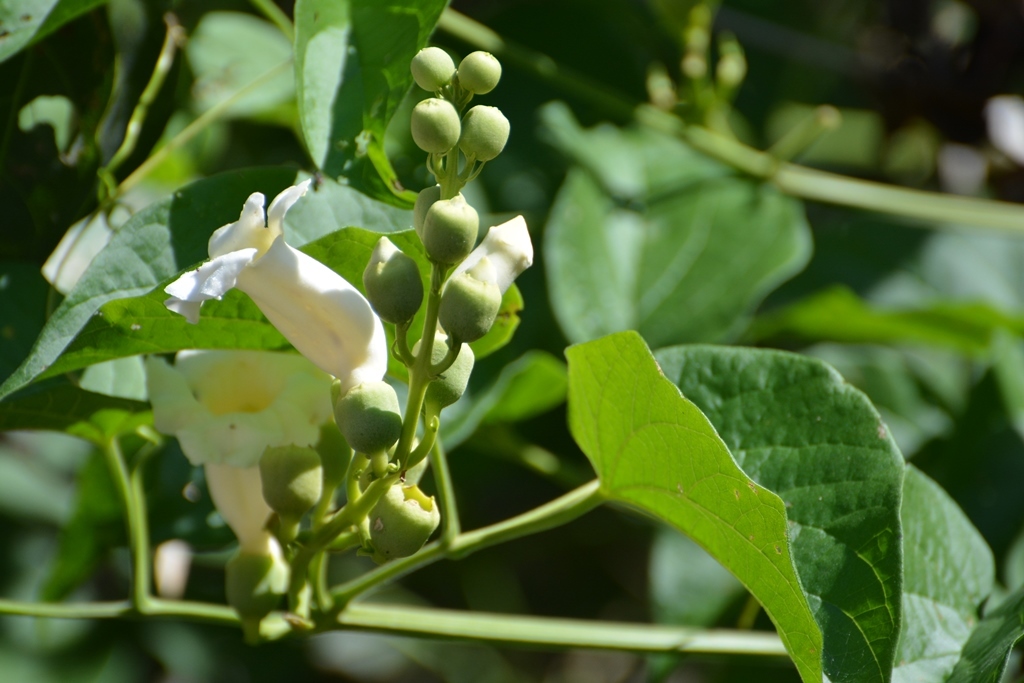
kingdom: Plantae
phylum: Tracheophyta
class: Magnoliopsida
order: Lamiales
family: Bignoniaceae
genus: Amphilophium
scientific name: Amphilophium crucigerum
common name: Monkey comb
